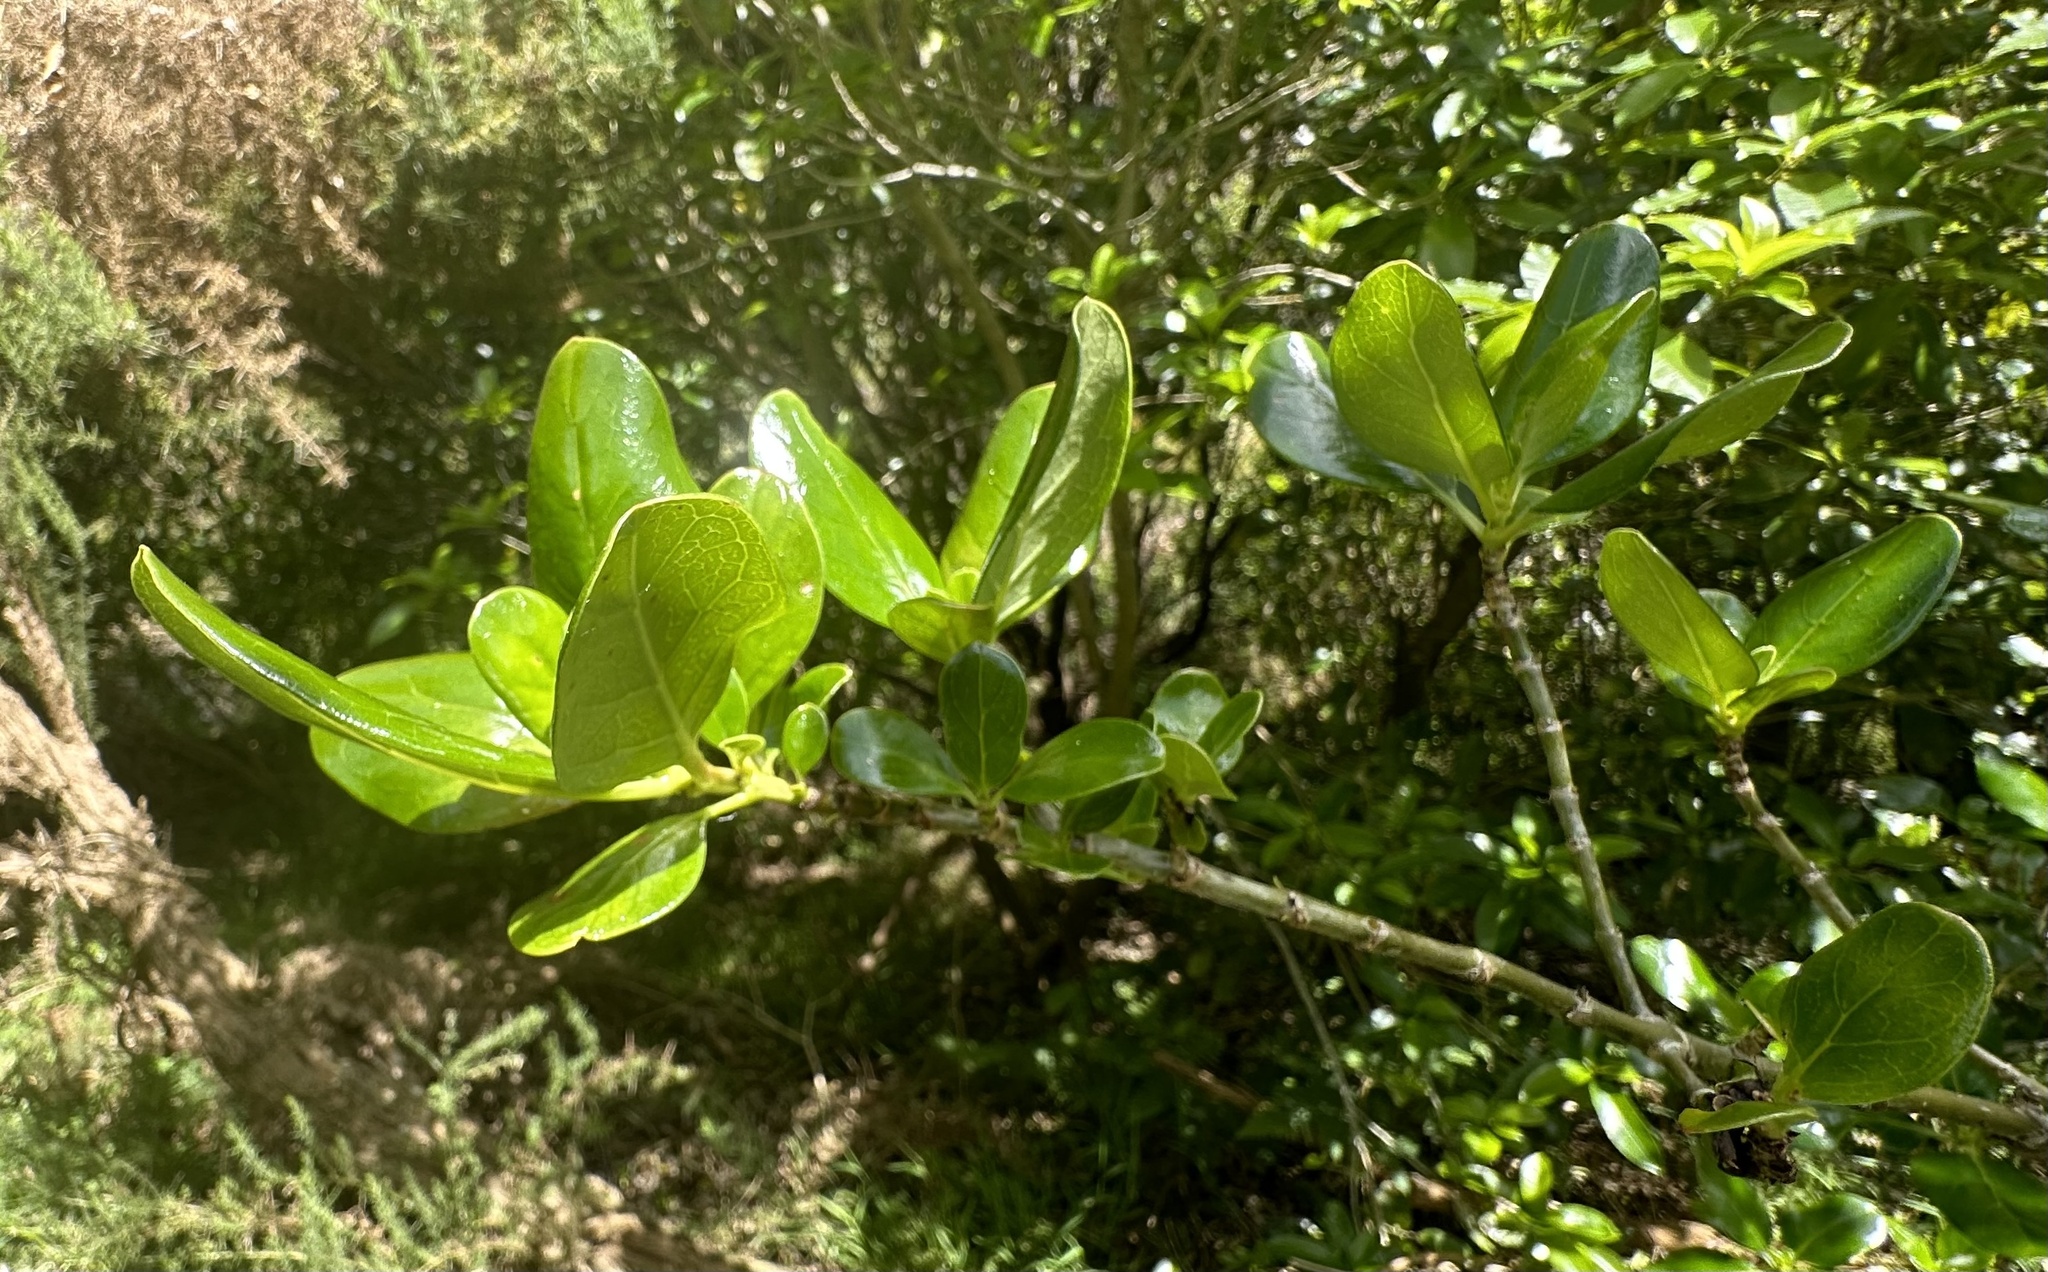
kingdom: Plantae
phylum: Tracheophyta
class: Magnoliopsida
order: Gentianales
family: Rubiaceae
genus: Coprosma
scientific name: Coprosma repens
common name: Tree bedstraw
